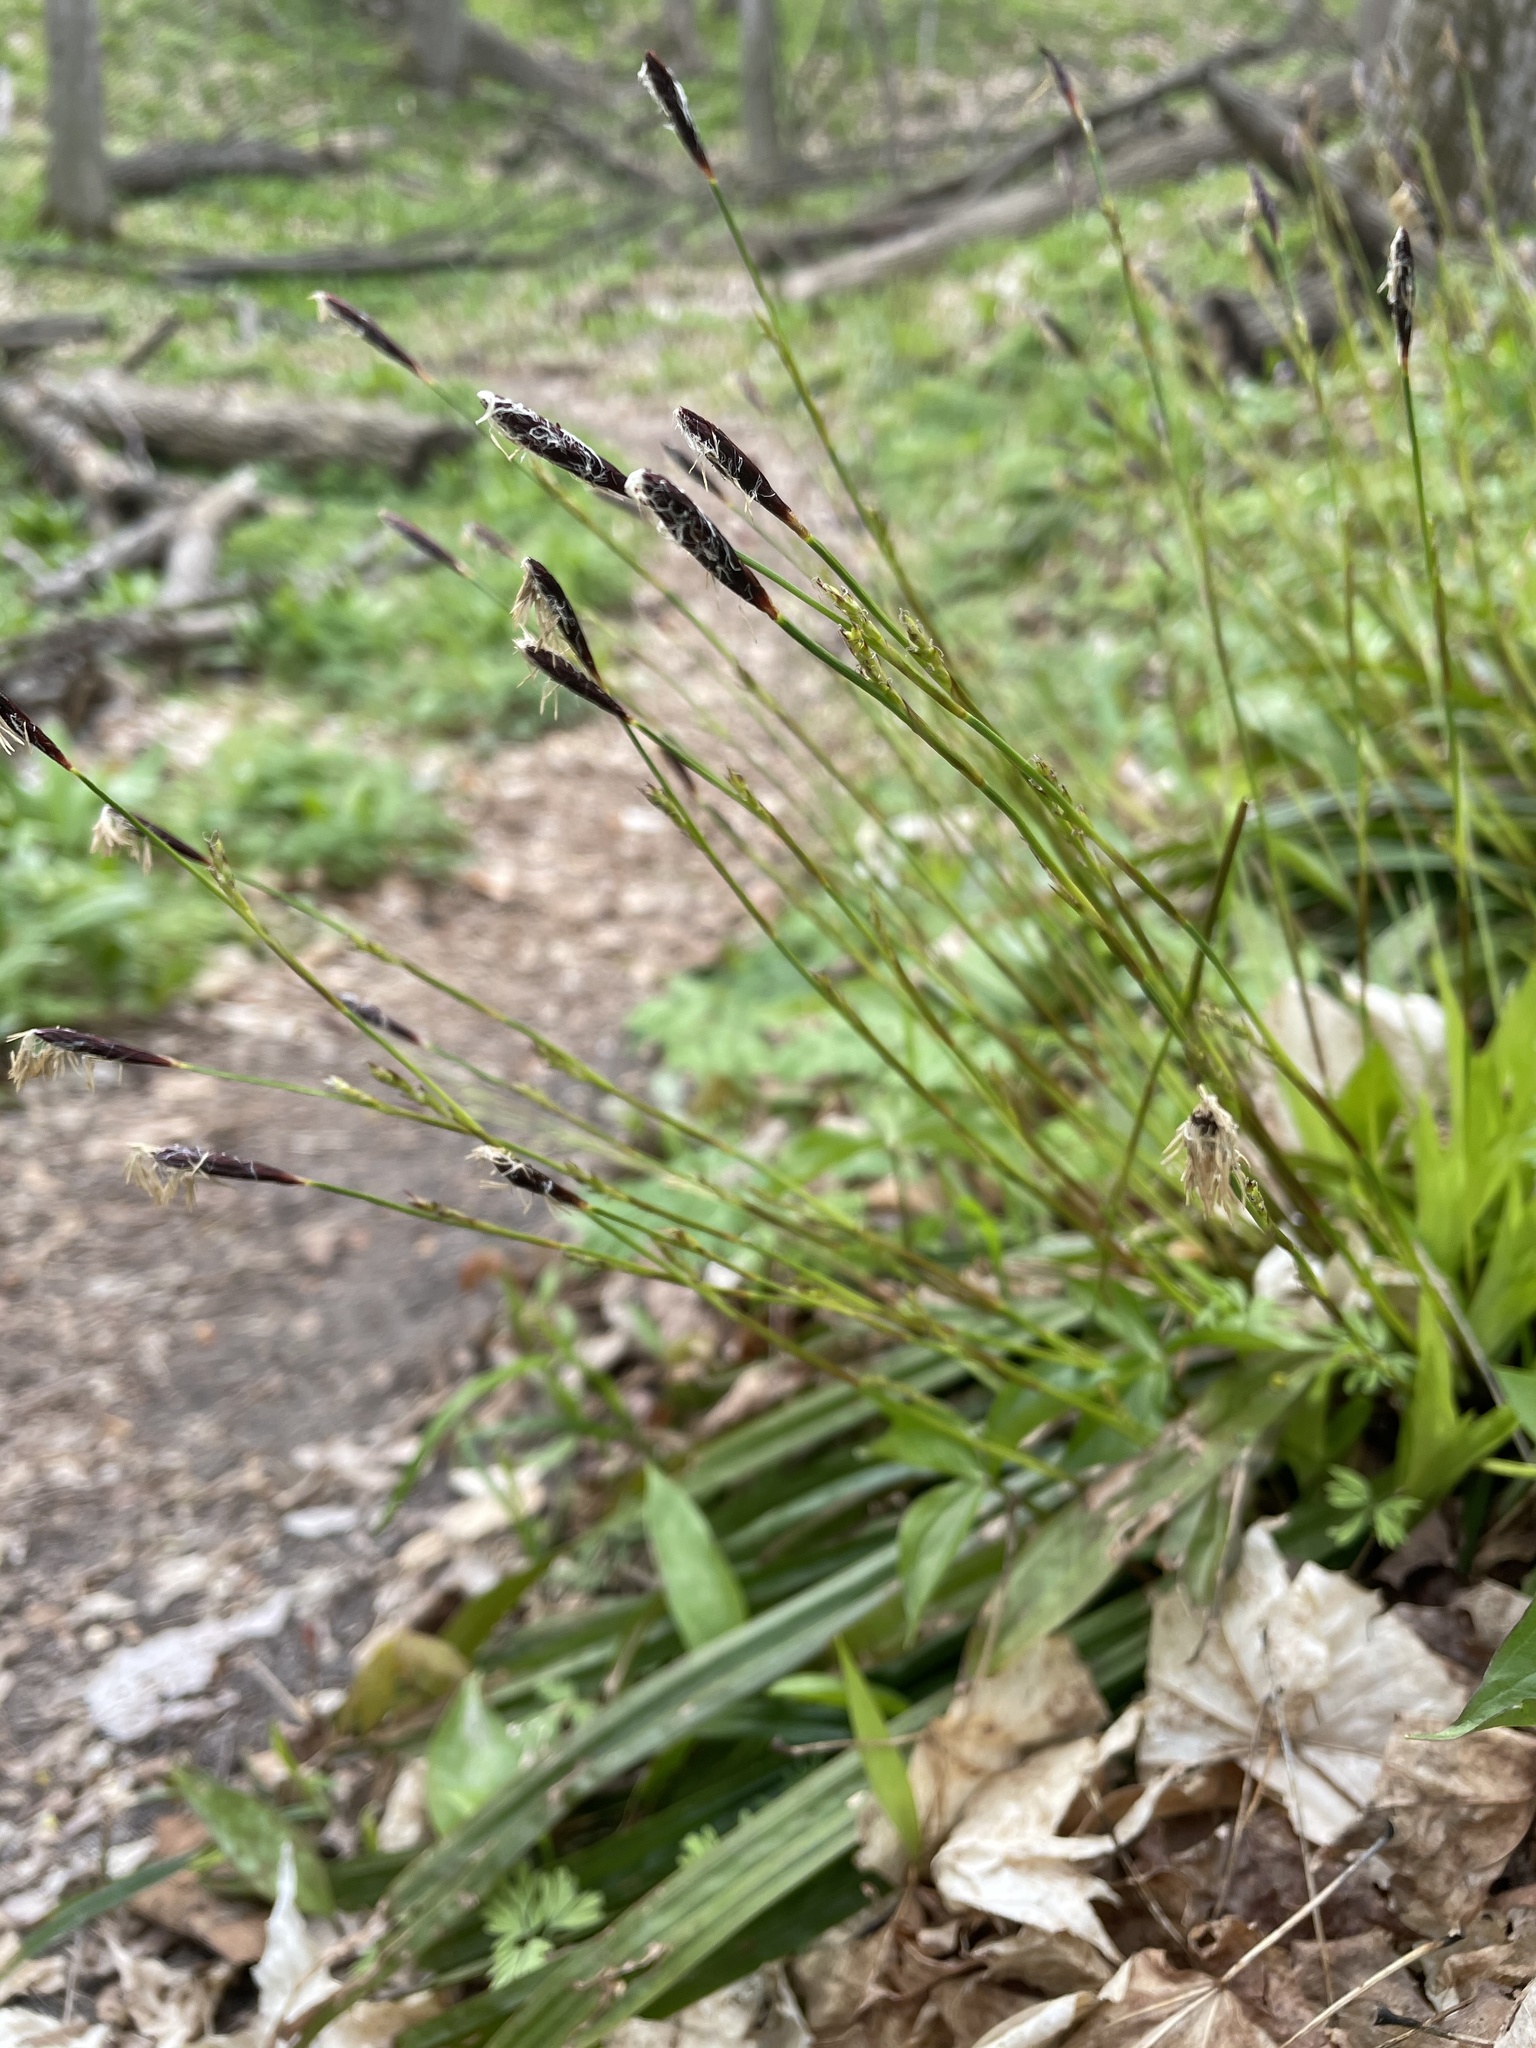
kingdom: Plantae
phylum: Tracheophyta
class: Liliopsida
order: Poales
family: Cyperaceae
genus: Carex
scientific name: Carex plantaginea
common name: Plantain-leaved sedge
